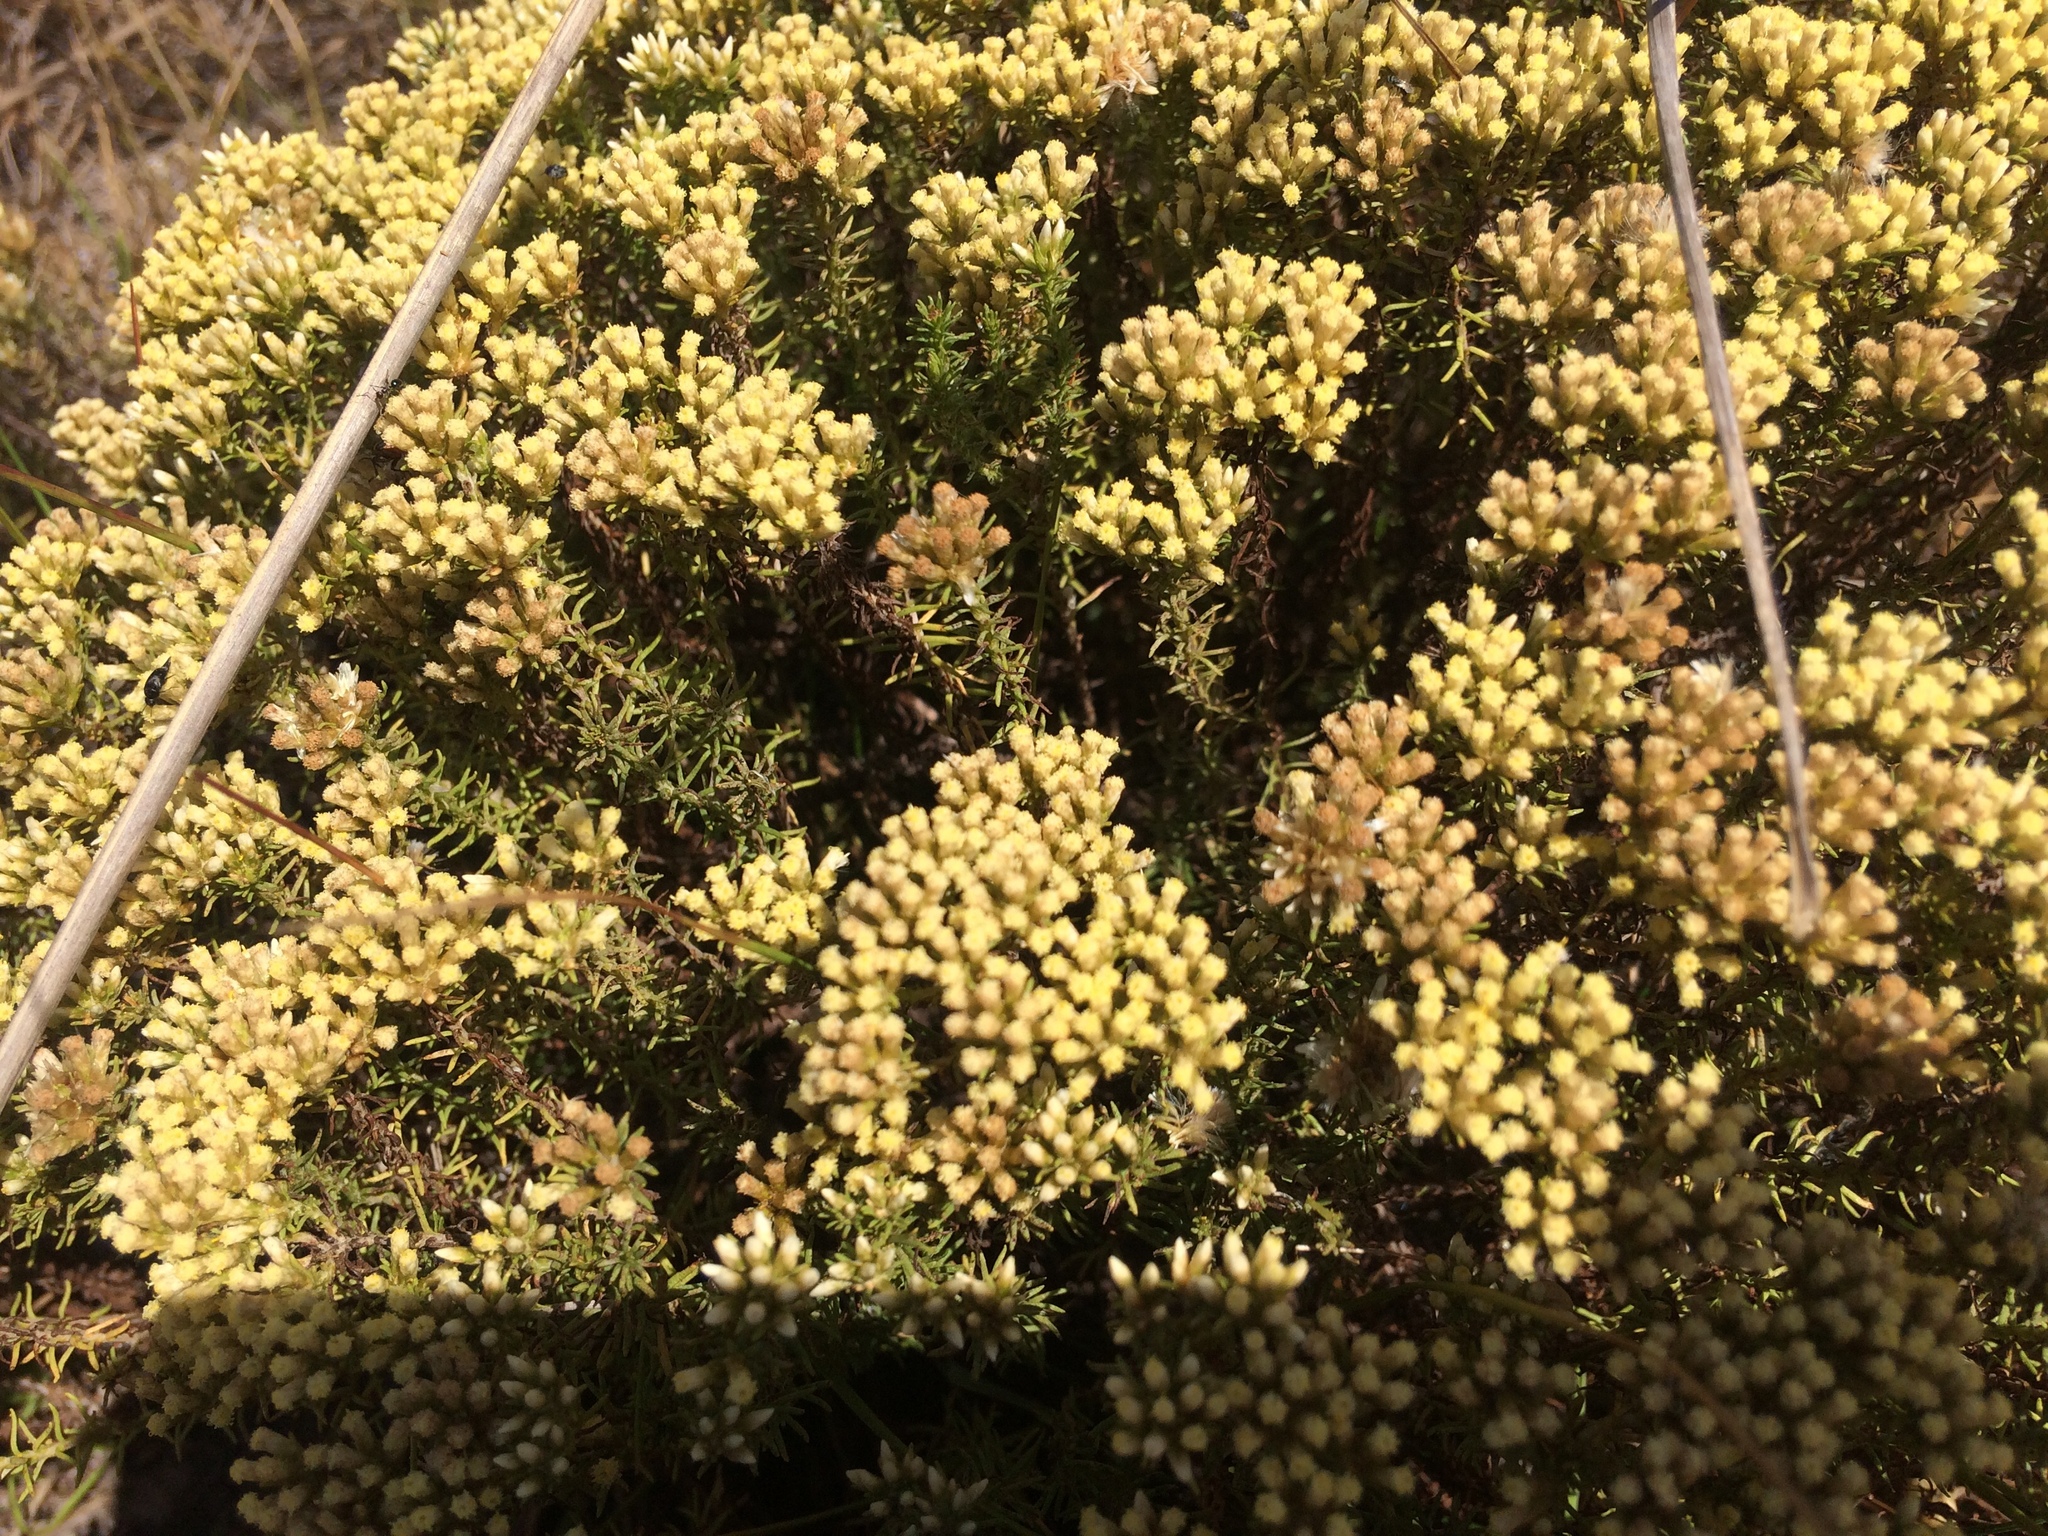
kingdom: Plantae
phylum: Tracheophyta
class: Magnoliopsida
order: Asterales
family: Asteraceae
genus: Helichrysum
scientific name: Helichrysum teretifolium
